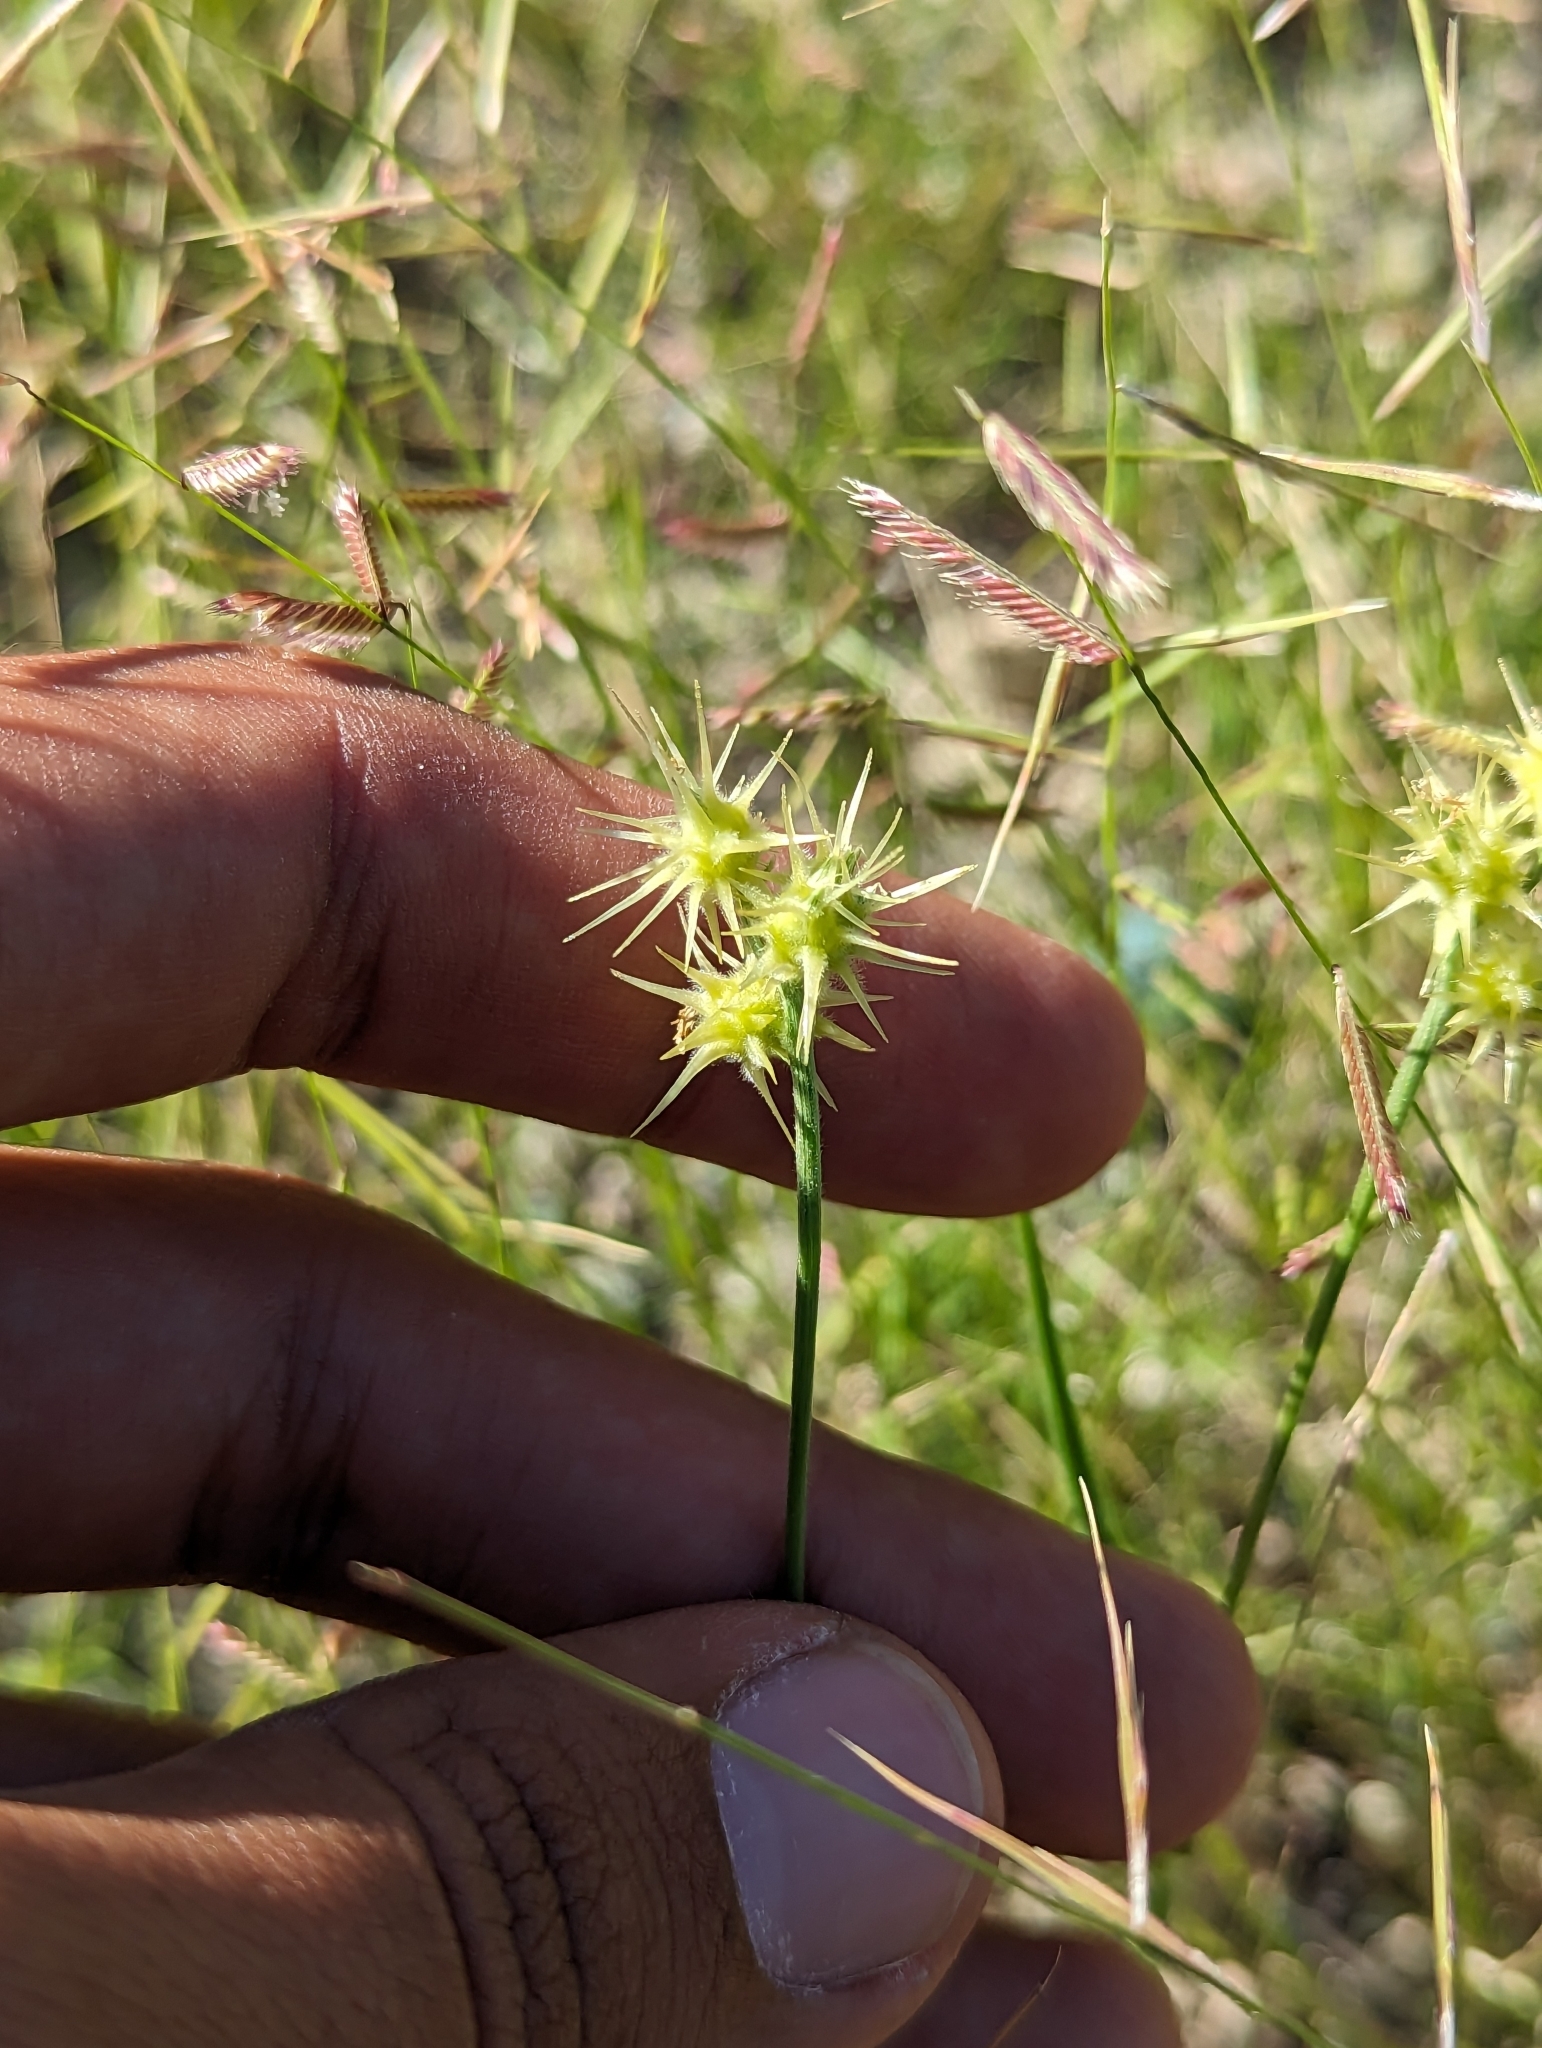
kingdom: Plantae
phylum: Tracheophyta
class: Liliopsida
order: Poales
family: Poaceae
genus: Cenchrus
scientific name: Cenchrus palmeri
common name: Giant sandbur
